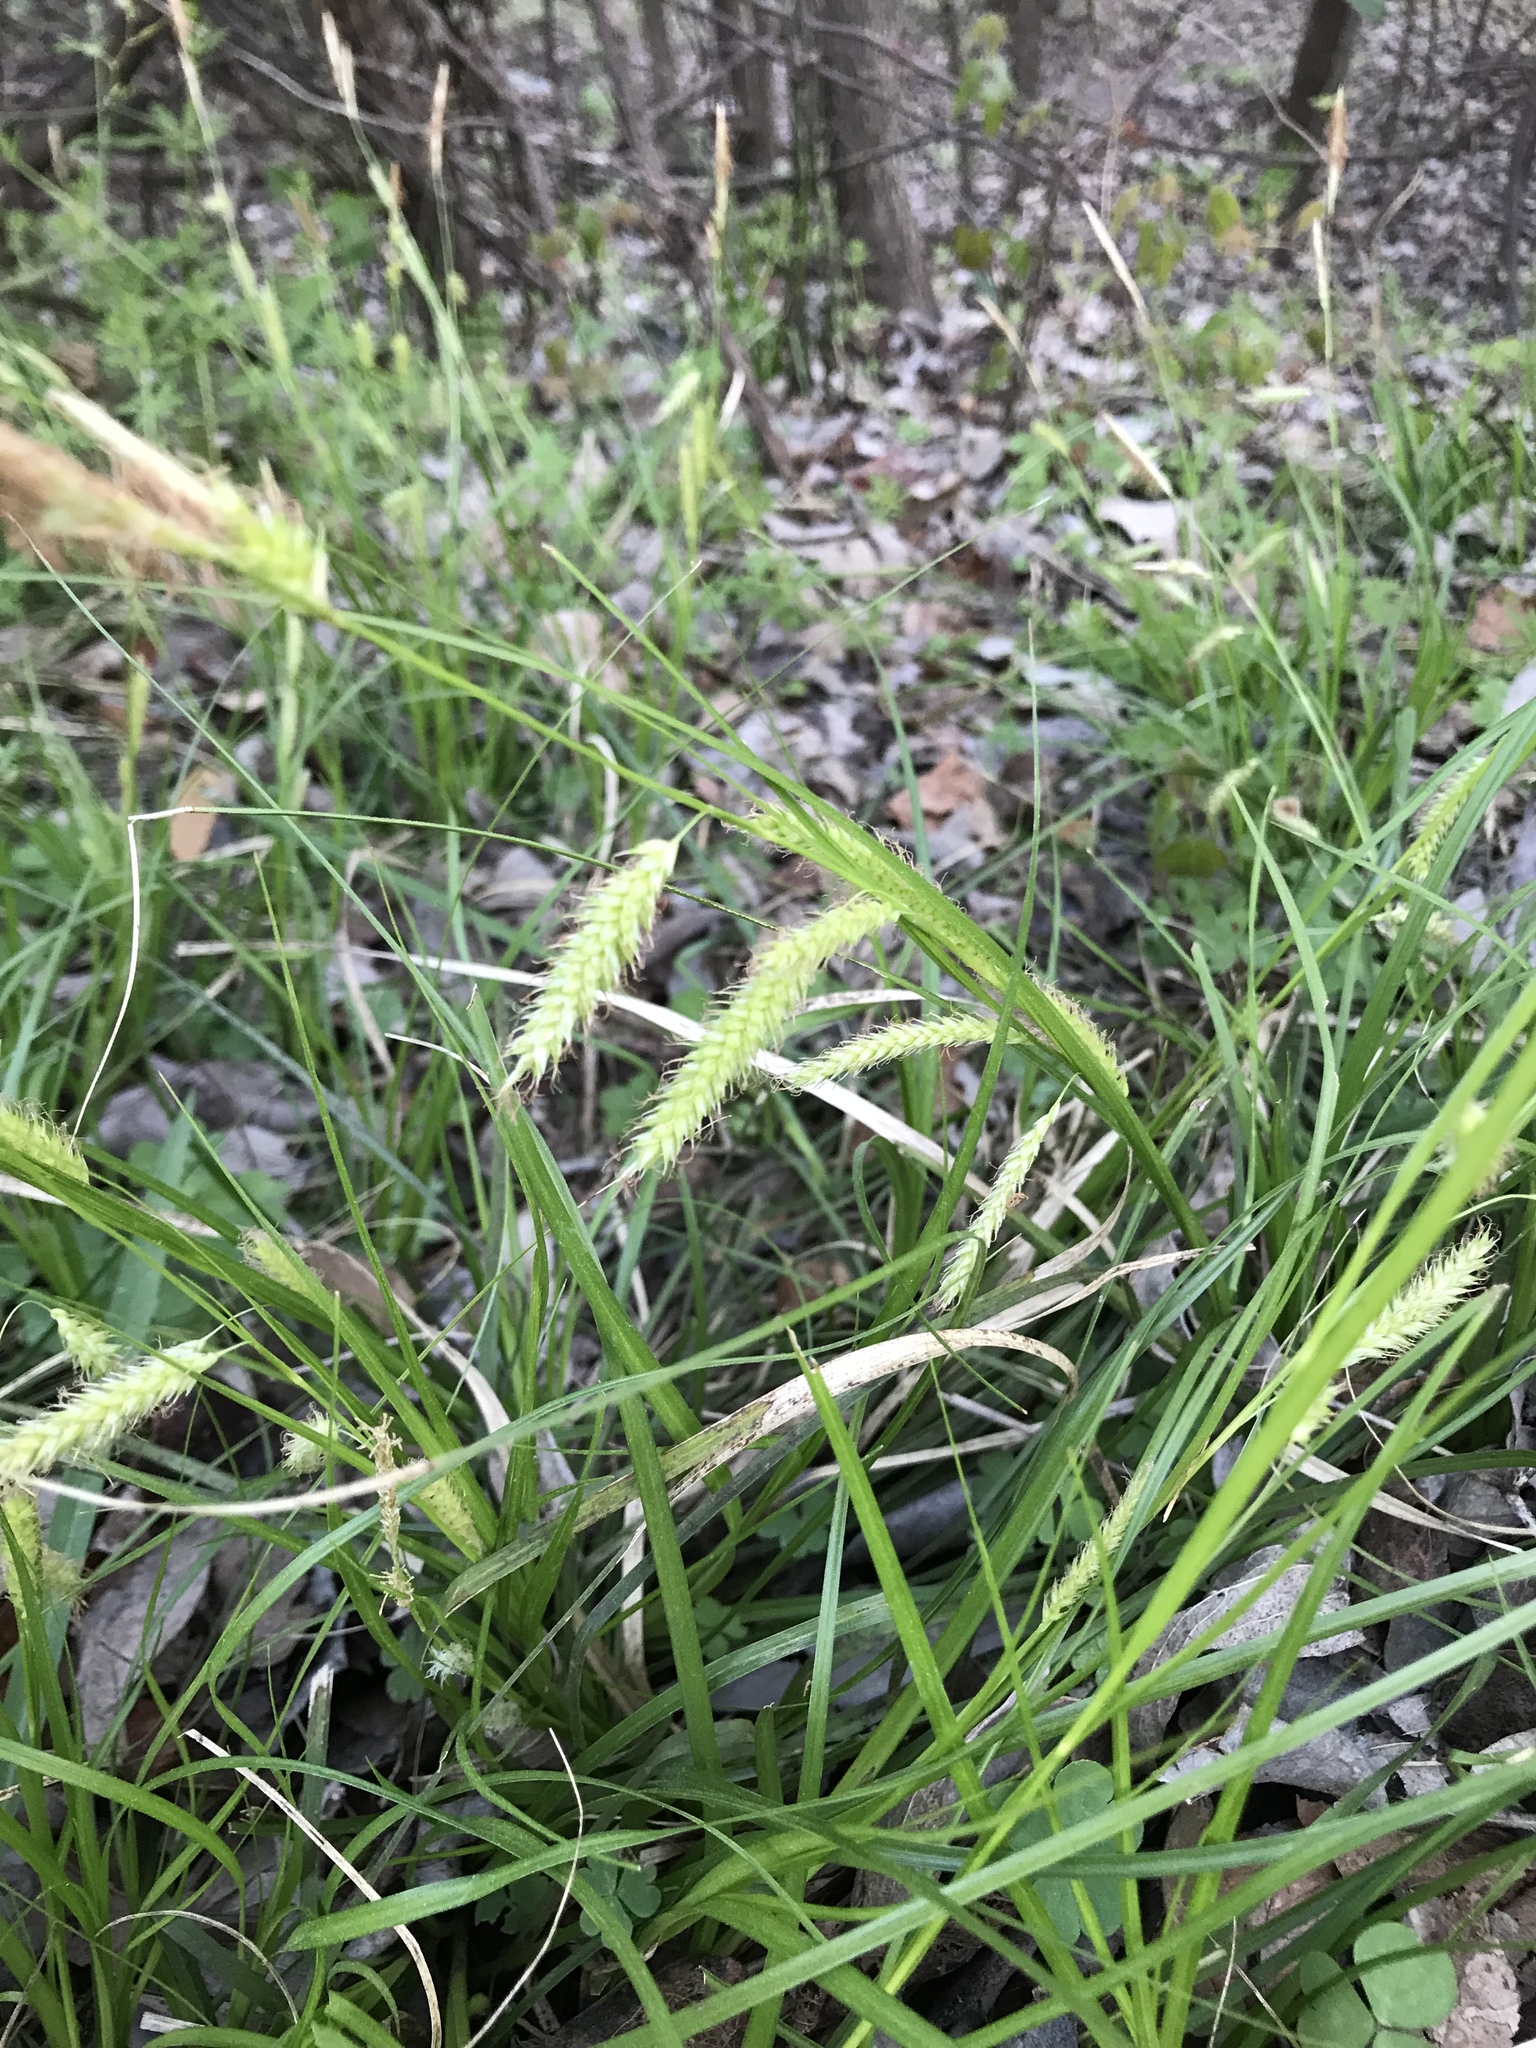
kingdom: Plantae
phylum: Tracheophyta
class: Liliopsida
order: Poales
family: Cyperaceae
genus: Carex
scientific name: Carex cherokeensis
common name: Cherokee sedge
